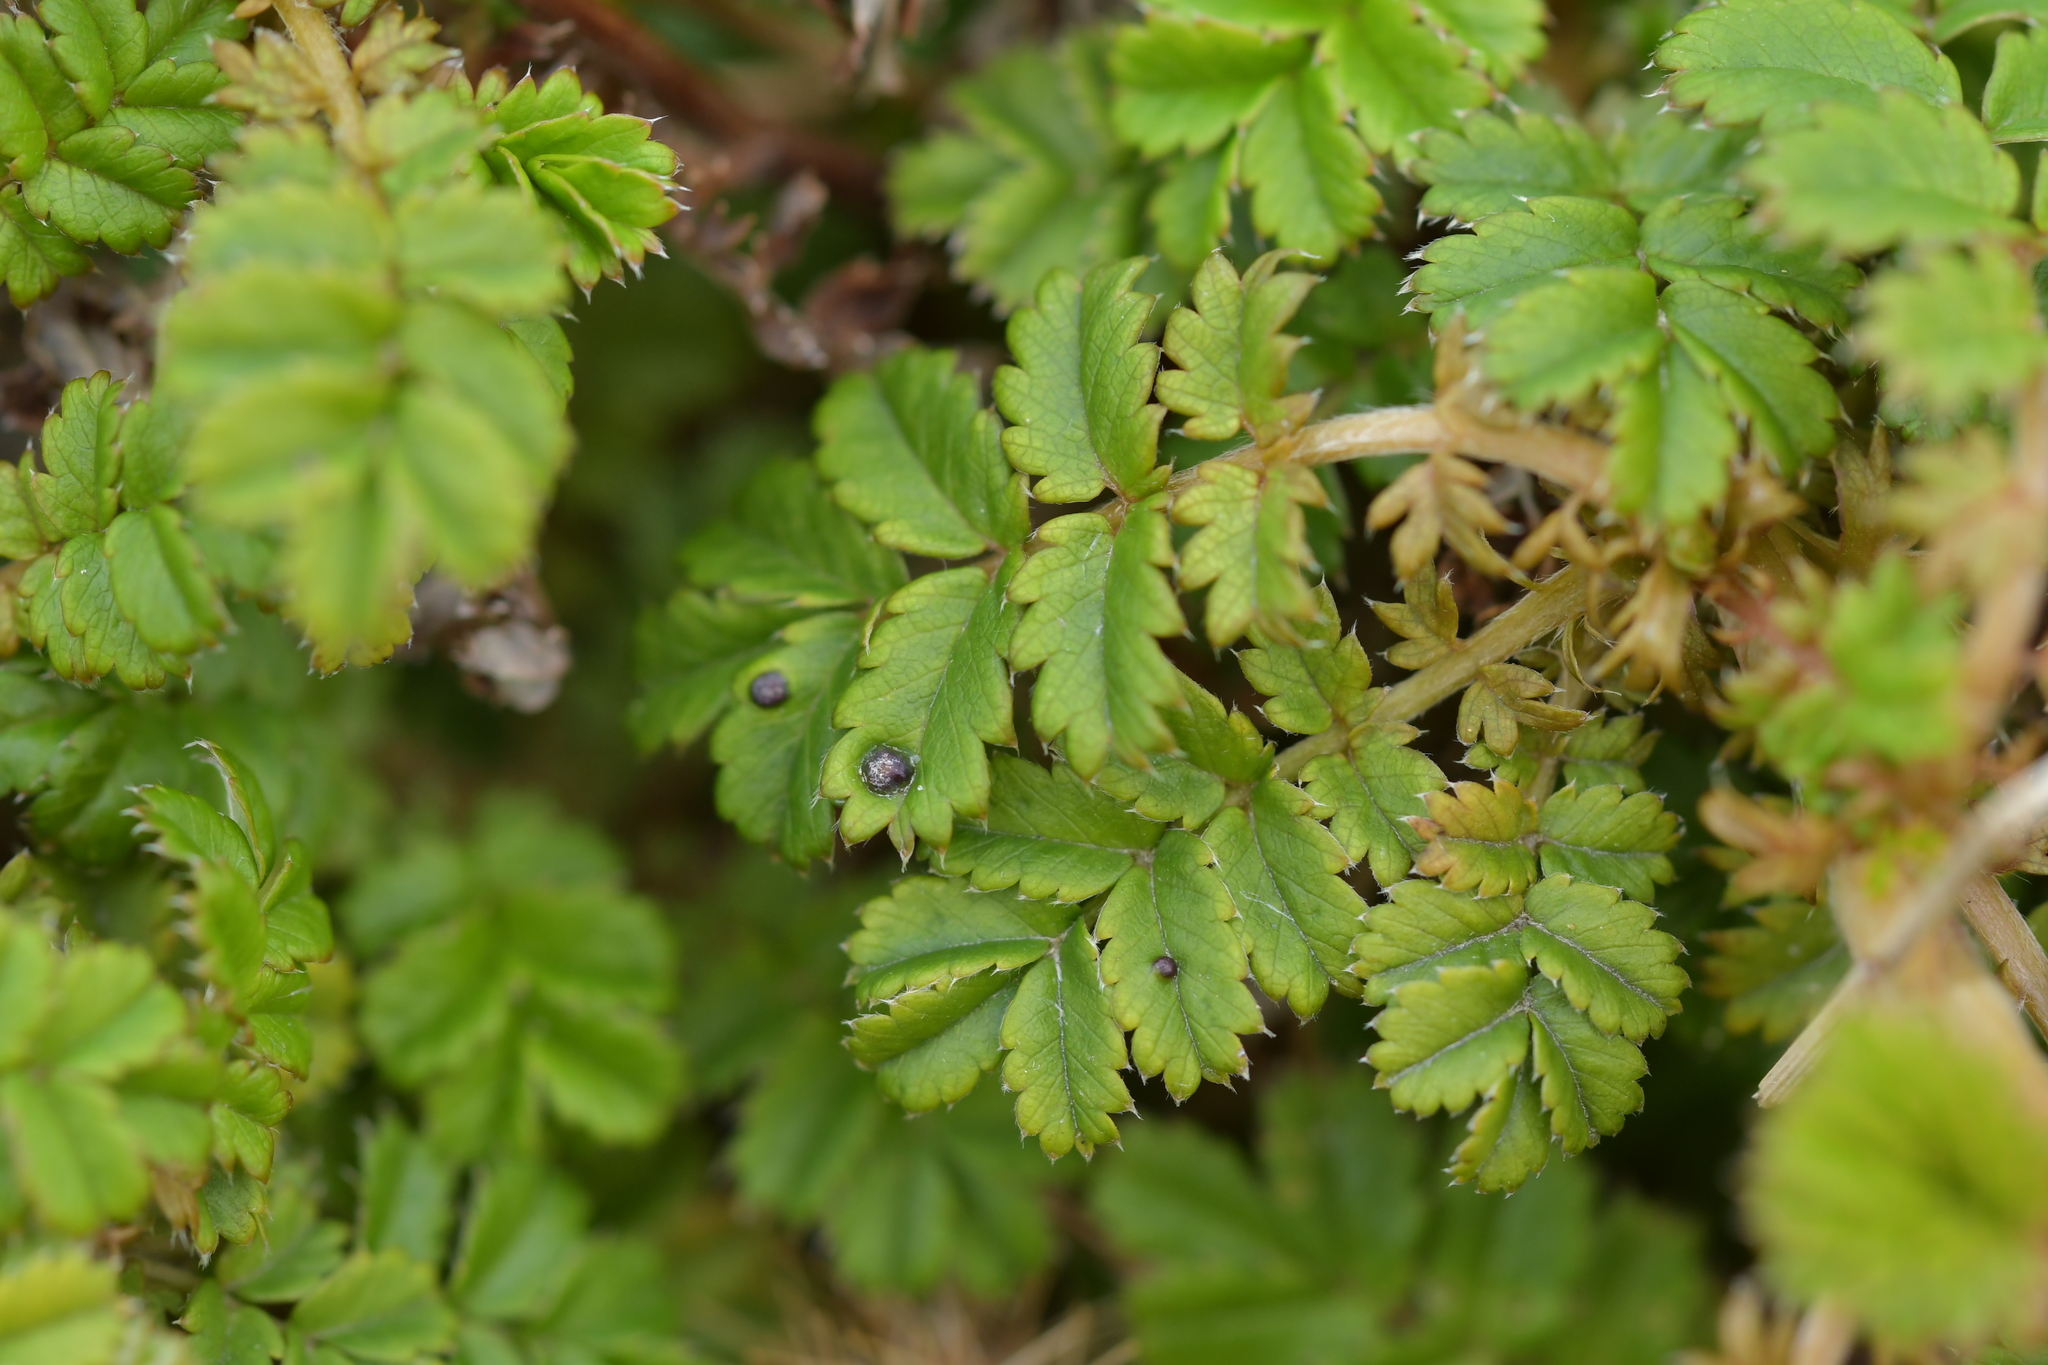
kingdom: Plantae
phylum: Tracheophyta
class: Magnoliopsida
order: Rosales
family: Rosaceae
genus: Acaena
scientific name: Acaena anserinifolia
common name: Bronze pirri-pirri-bur
